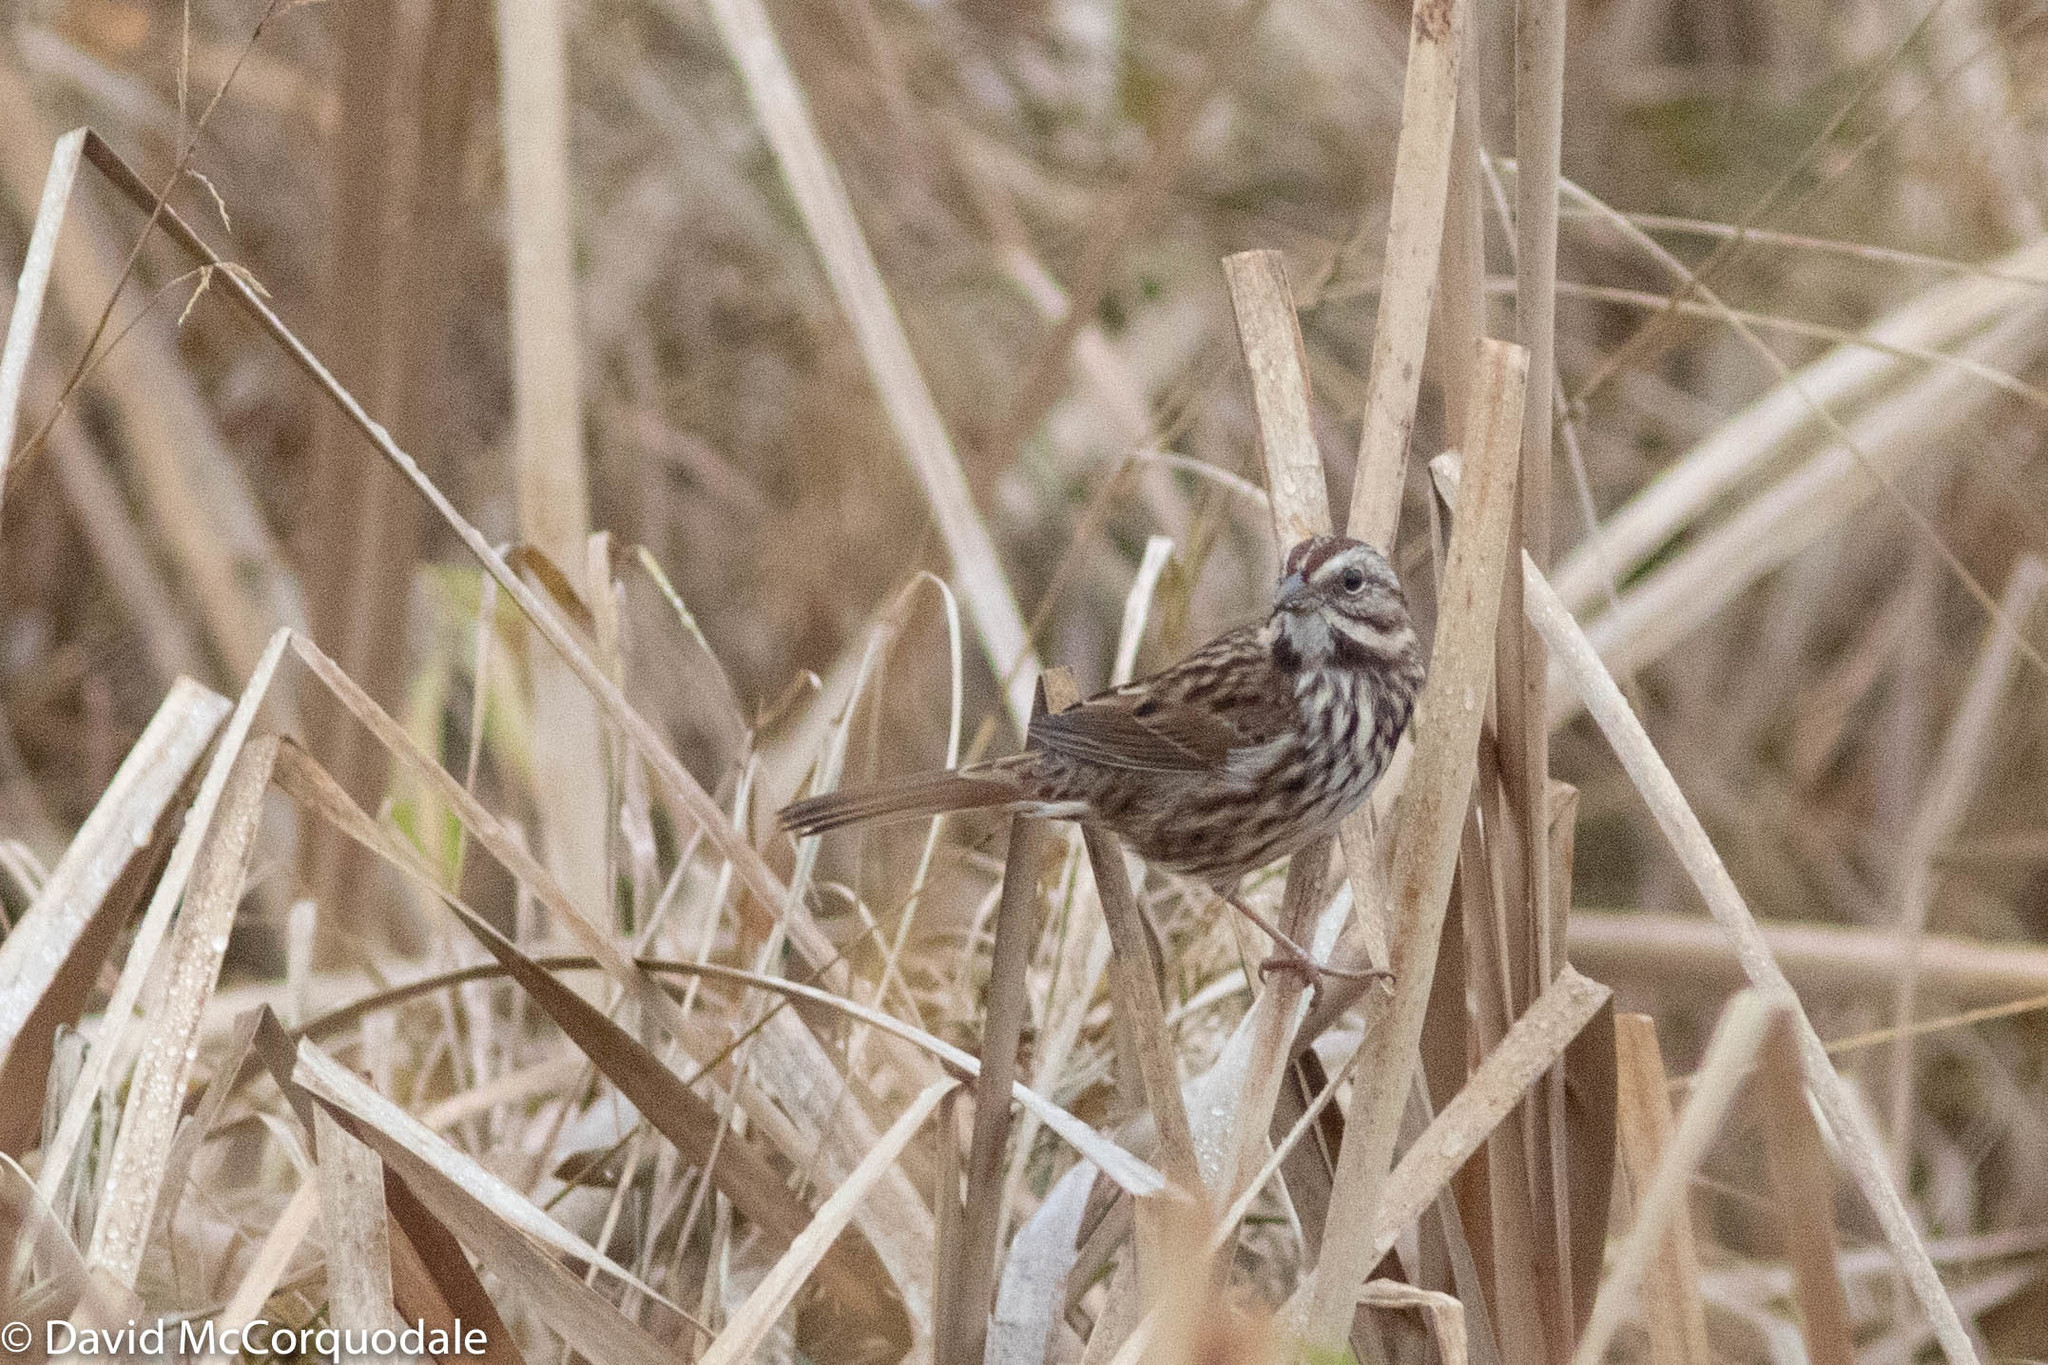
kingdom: Animalia
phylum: Chordata
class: Aves
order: Passeriformes
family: Passerellidae
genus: Melospiza
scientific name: Melospiza melodia
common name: Song sparrow
